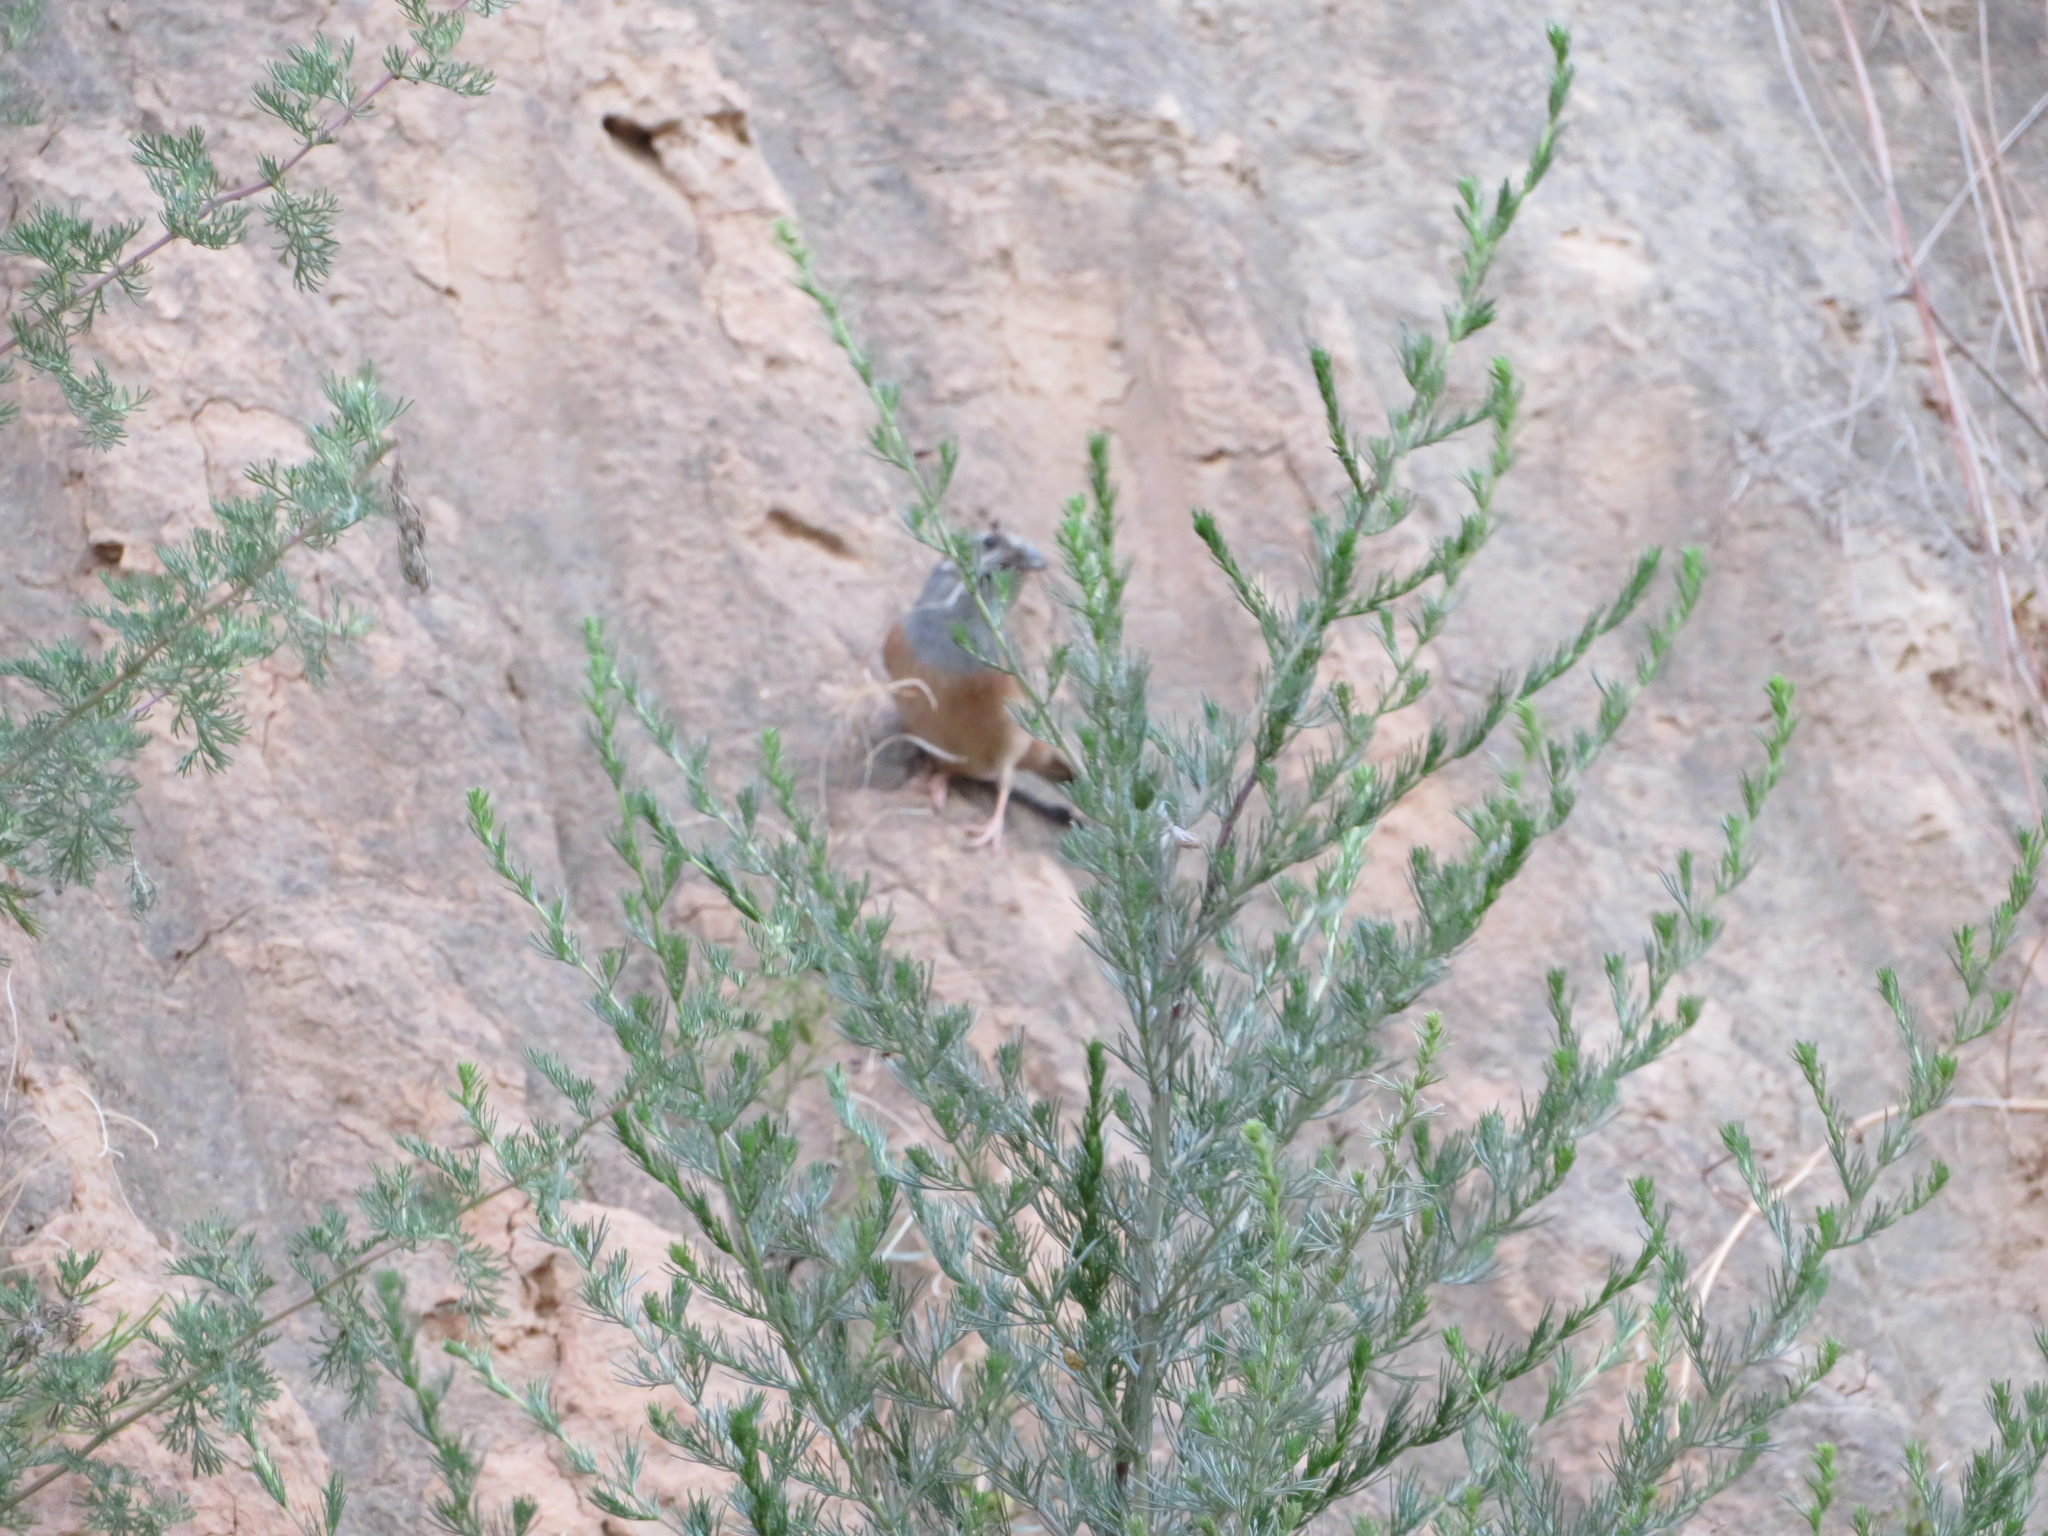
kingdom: Animalia
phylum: Chordata
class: Aves
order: Passeriformes
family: Emberizidae
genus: Emberiza
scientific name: Emberiza godlewskii
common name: Godlewski's bunting
